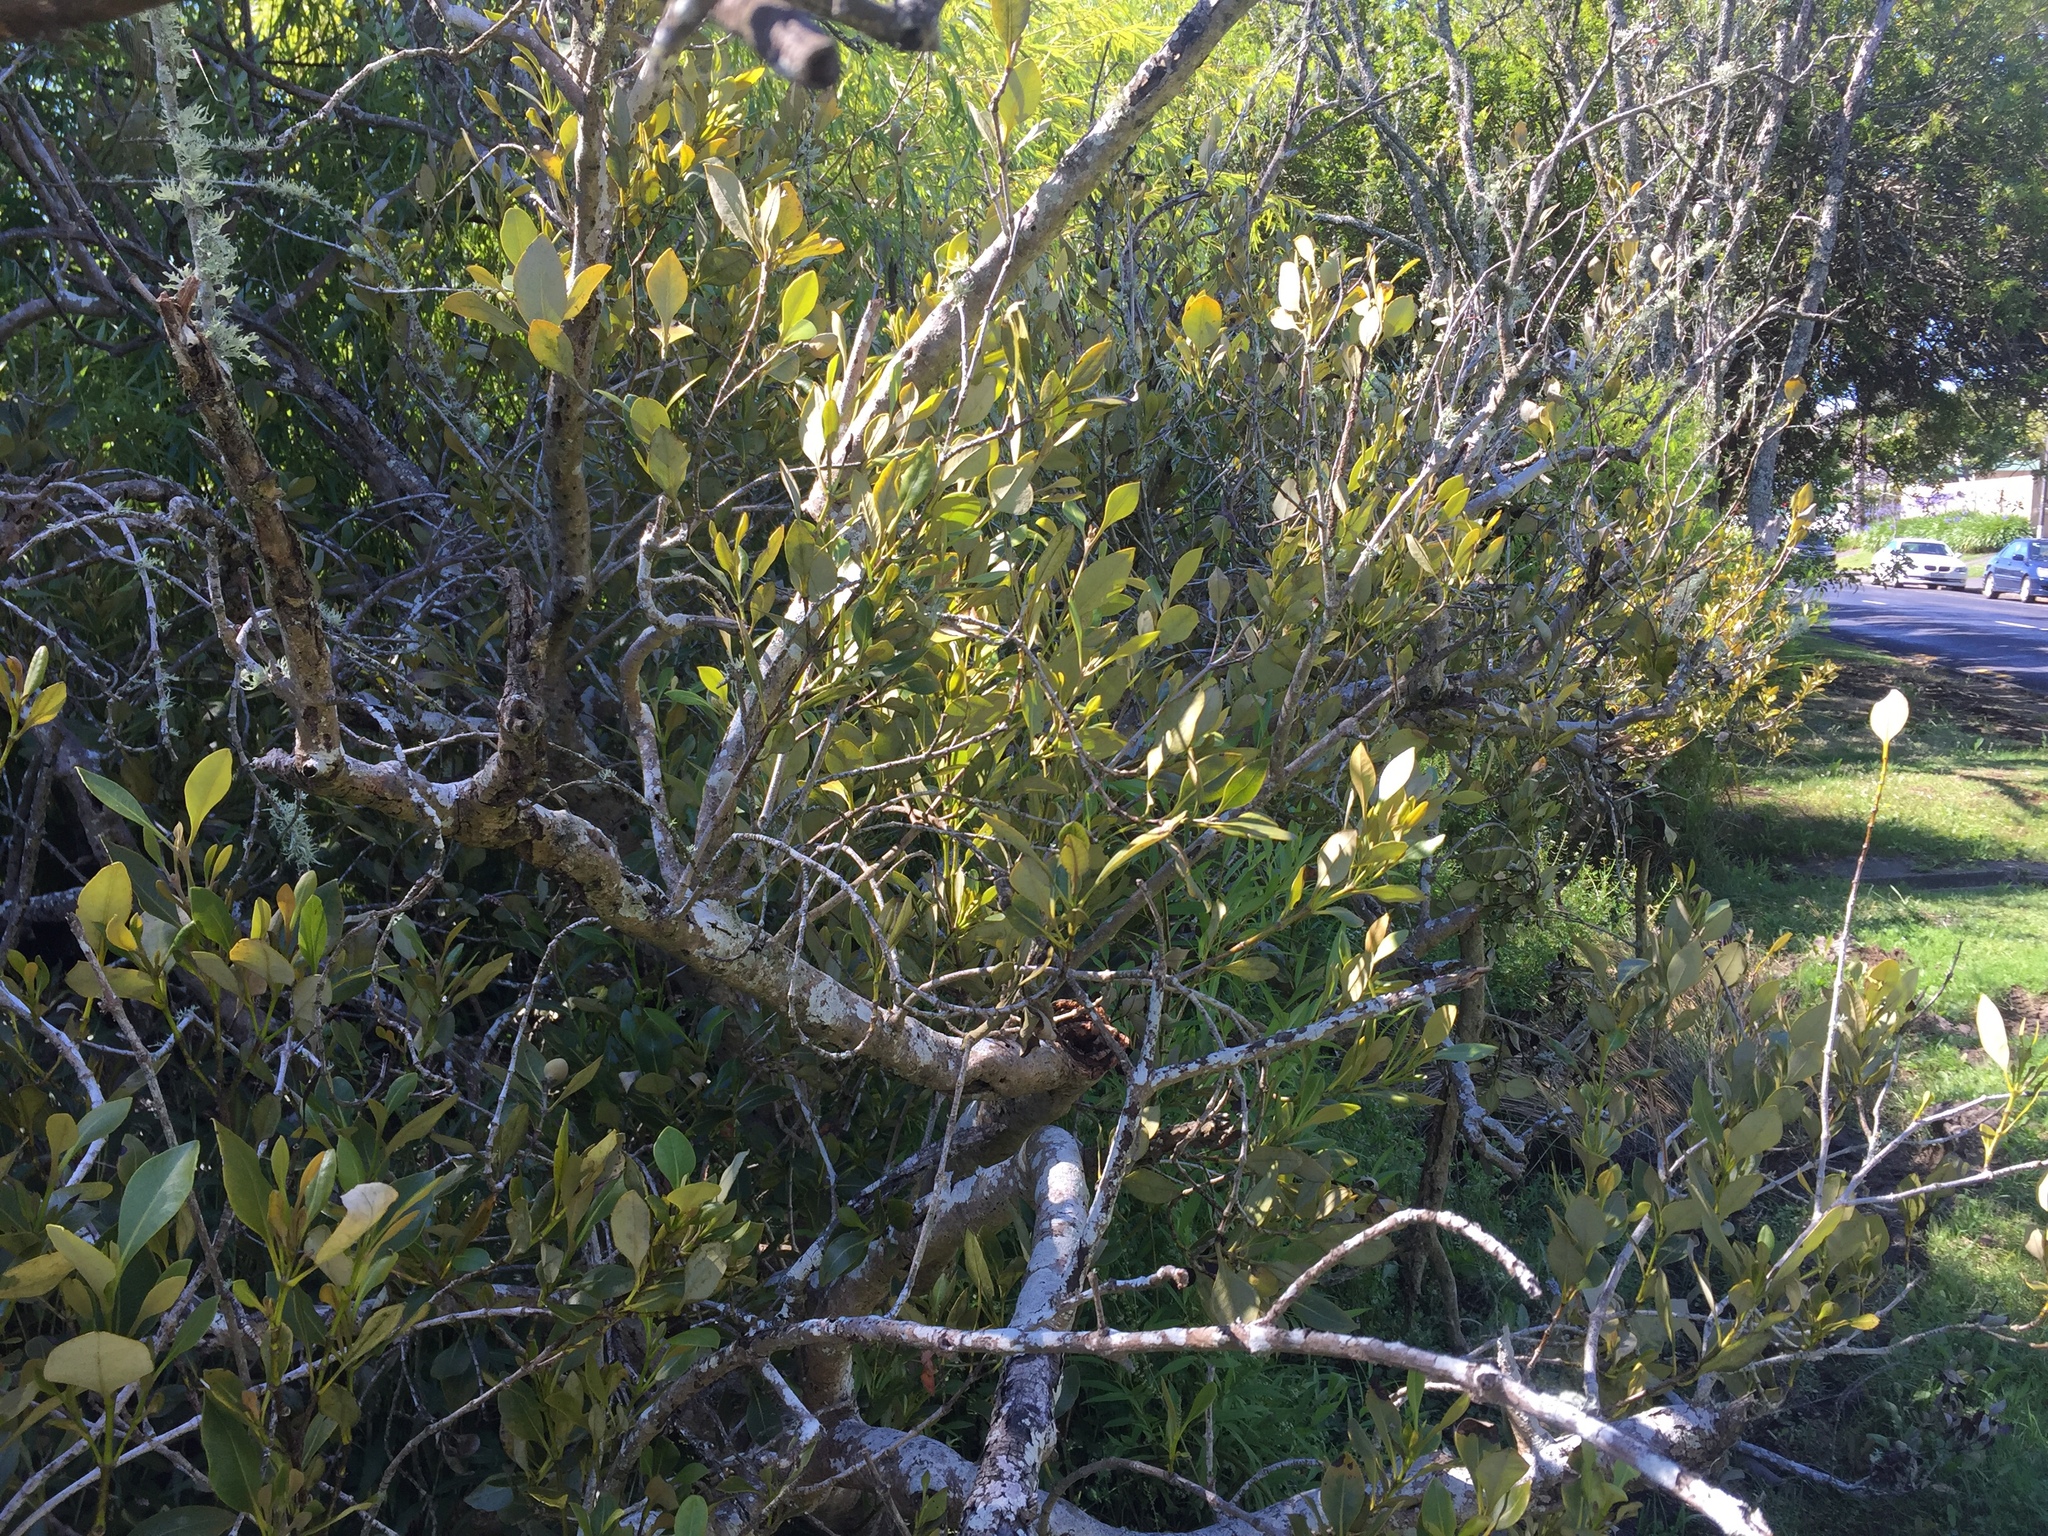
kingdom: Plantae
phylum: Tracheophyta
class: Magnoliopsida
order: Lamiales
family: Acanthaceae
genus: Avicennia
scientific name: Avicennia marina
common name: Gray mangrove
